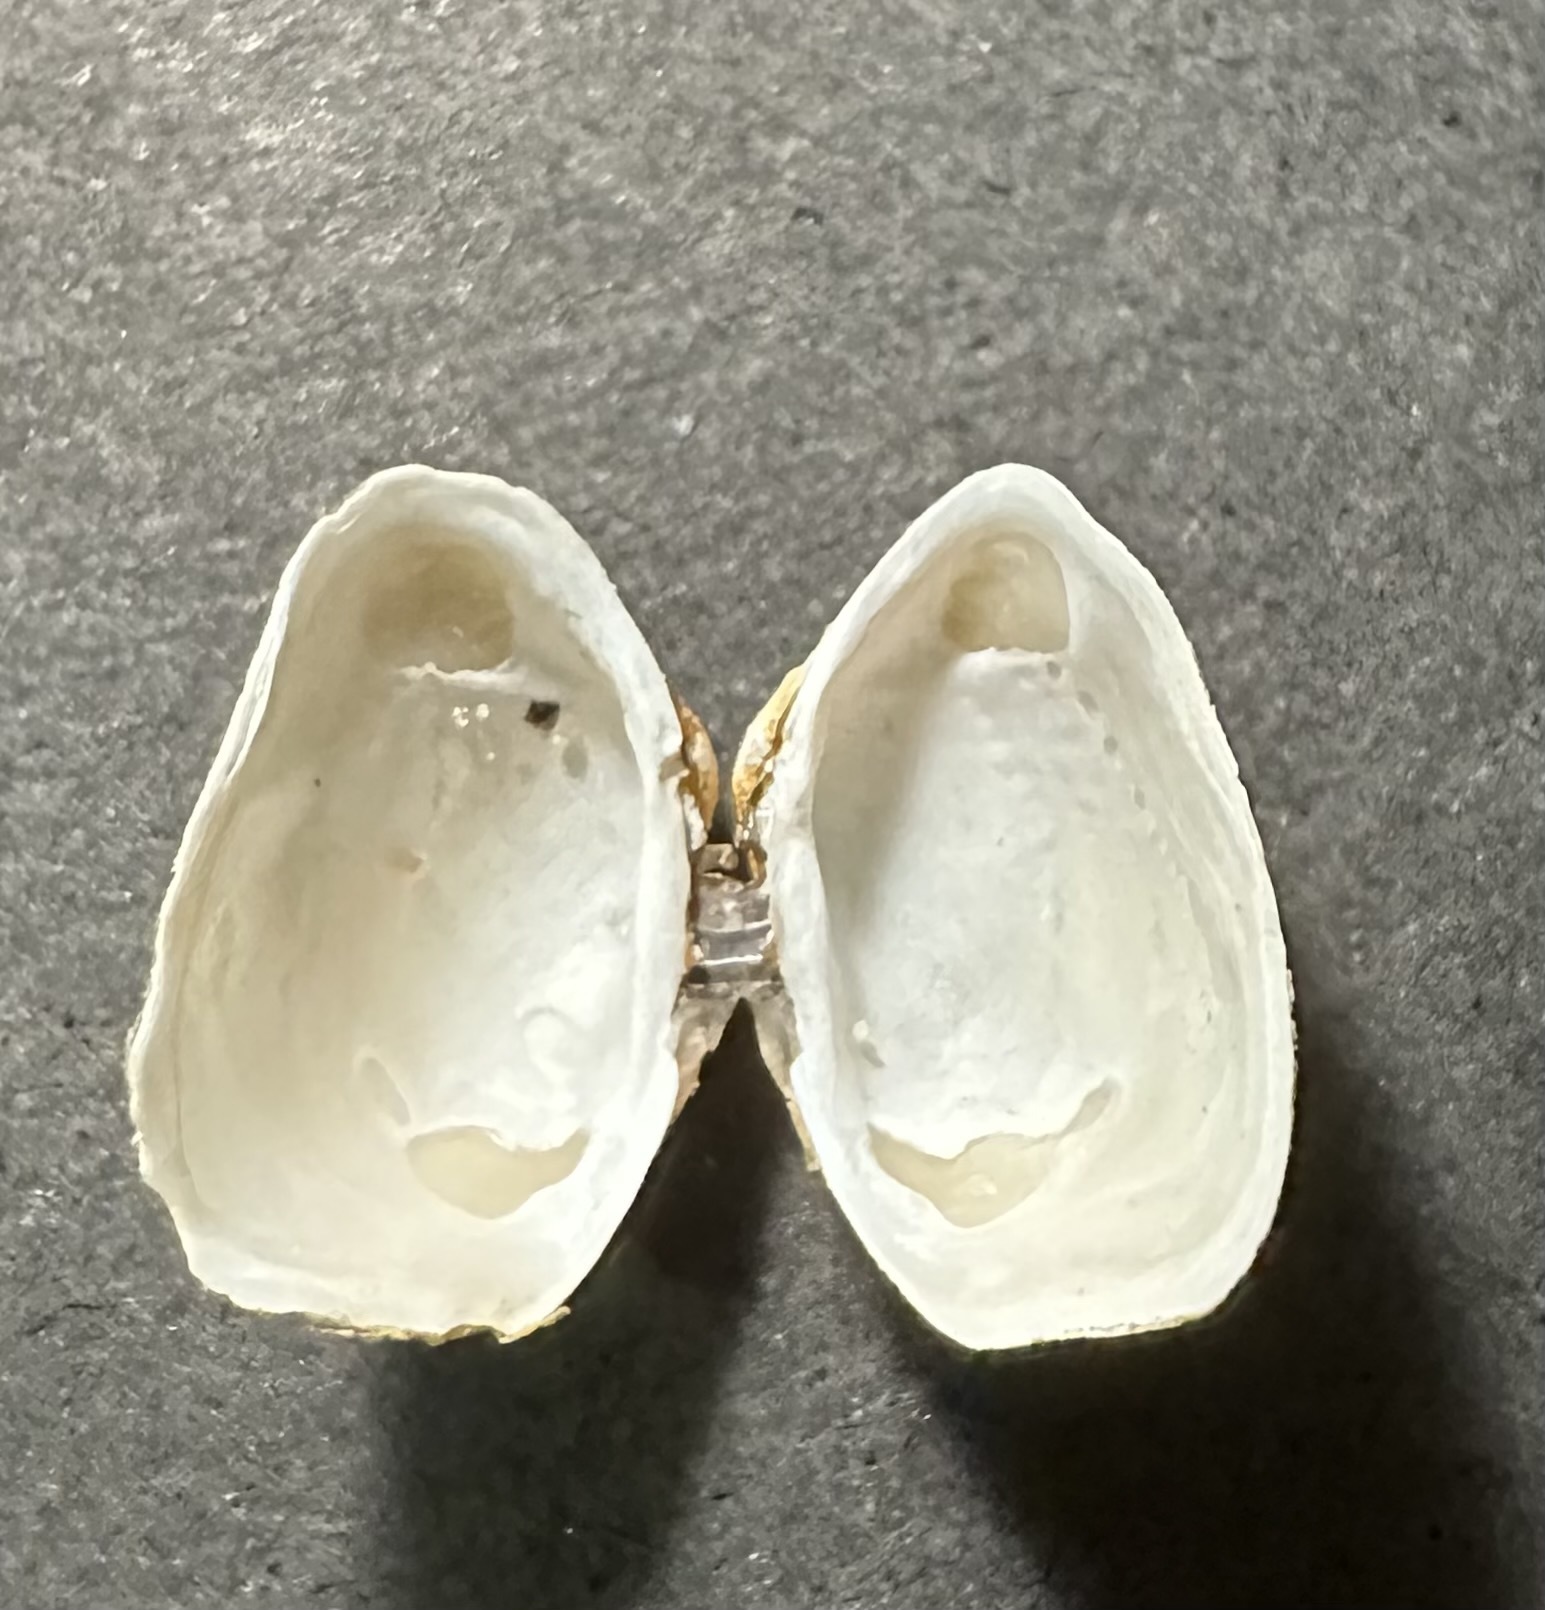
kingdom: Animalia
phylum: Mollusca
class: Bivalvia
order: Adapedonta
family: Hiatellidae
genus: Hiatella
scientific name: Hiatella arctica
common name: Arctic hiatella
